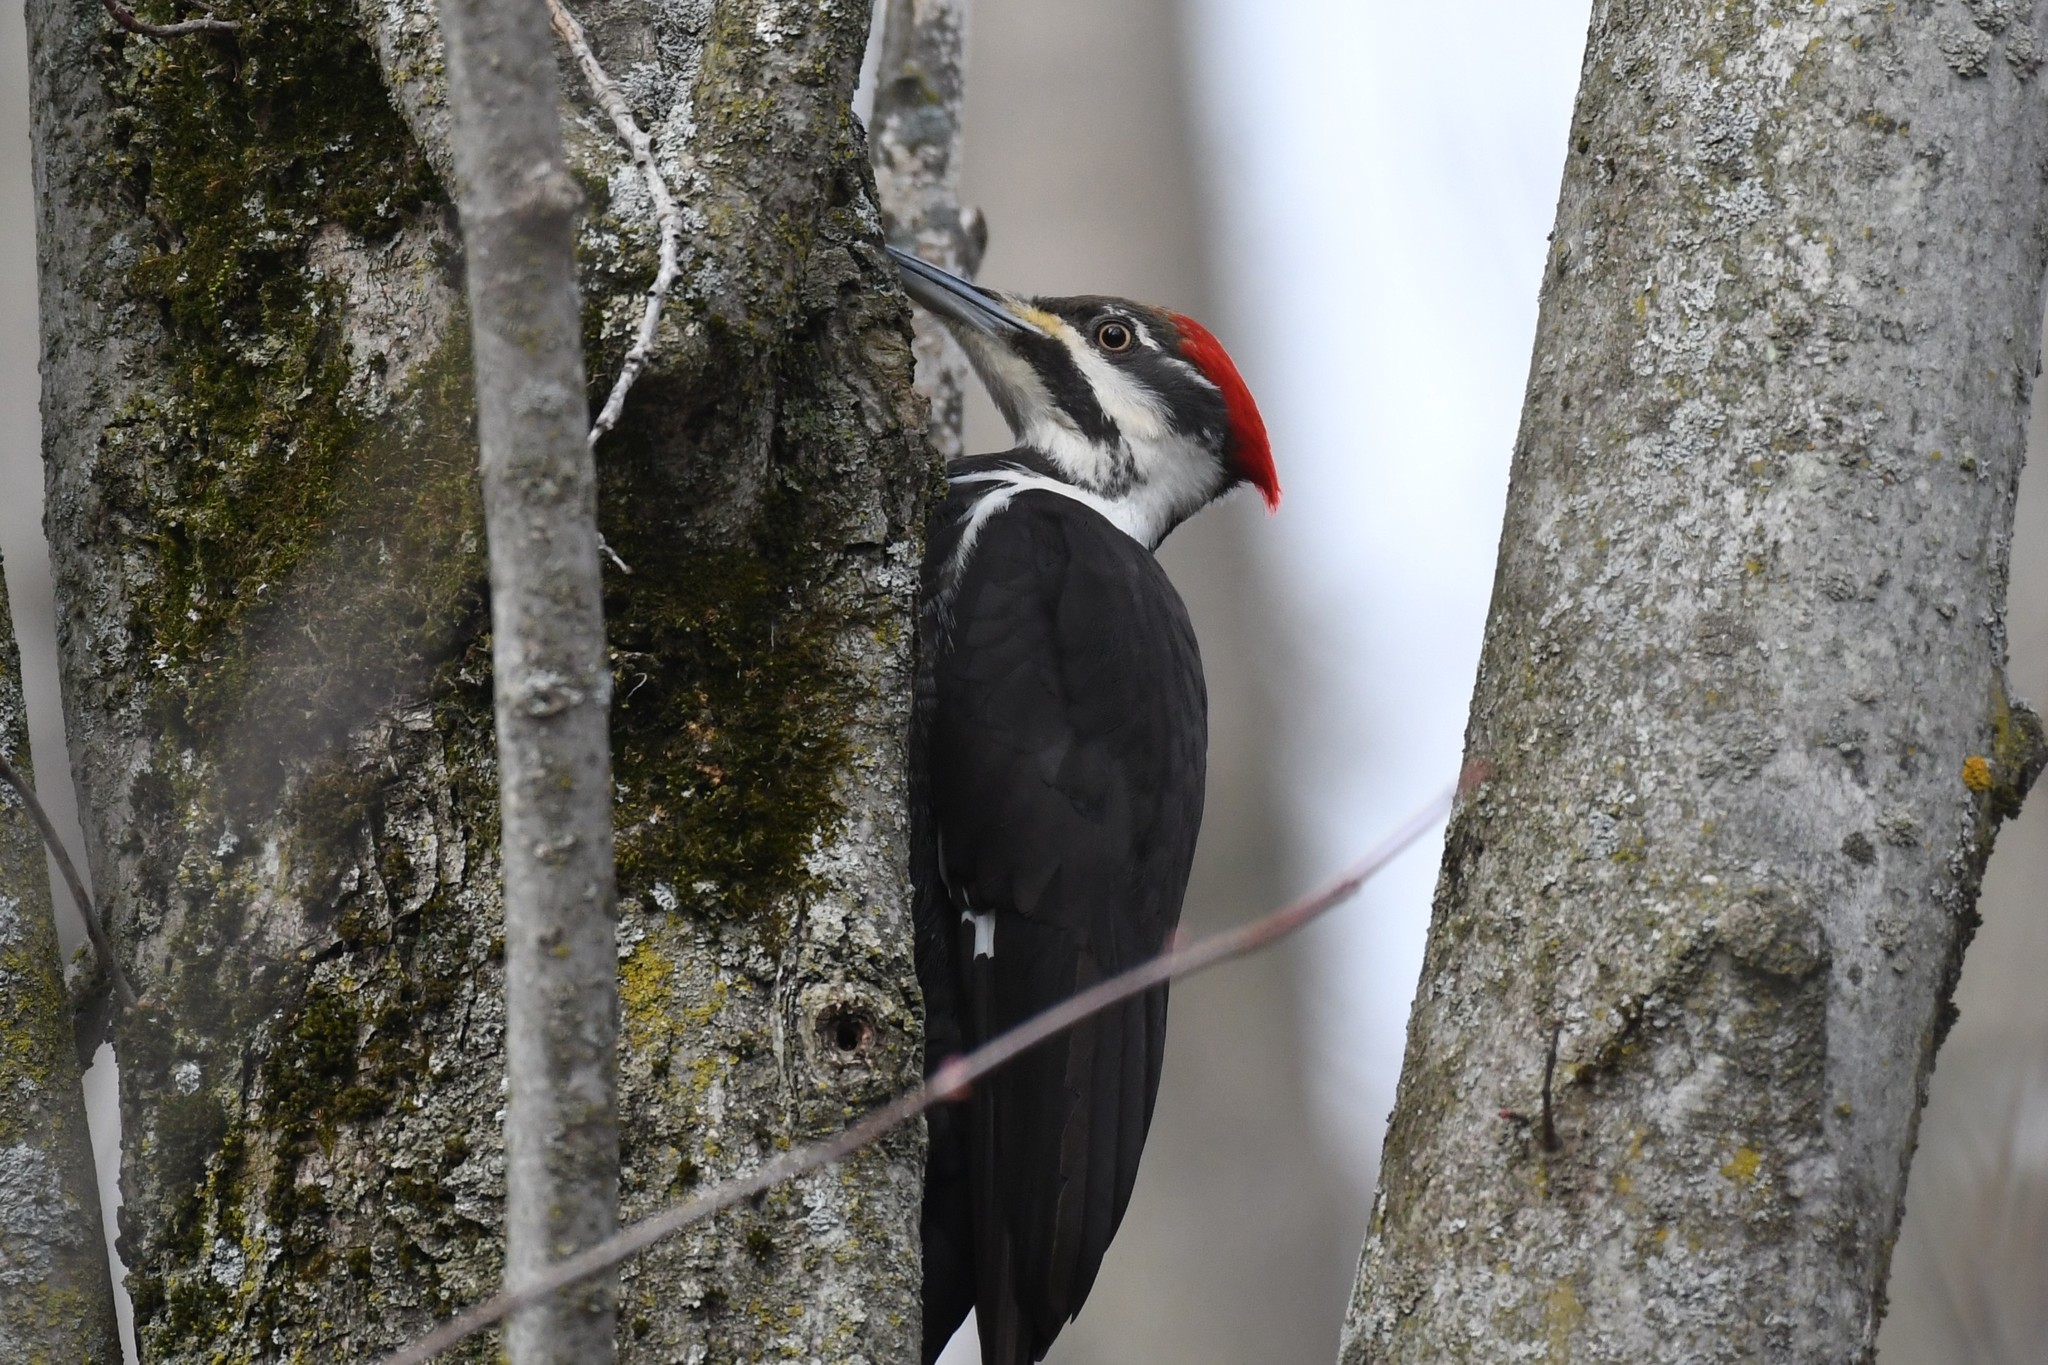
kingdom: Animalia
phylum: Chordata
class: Aves
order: Piciformes
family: Picidae
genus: Dryocopus
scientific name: Dryocopus pileatus
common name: Pileated woodpecker
